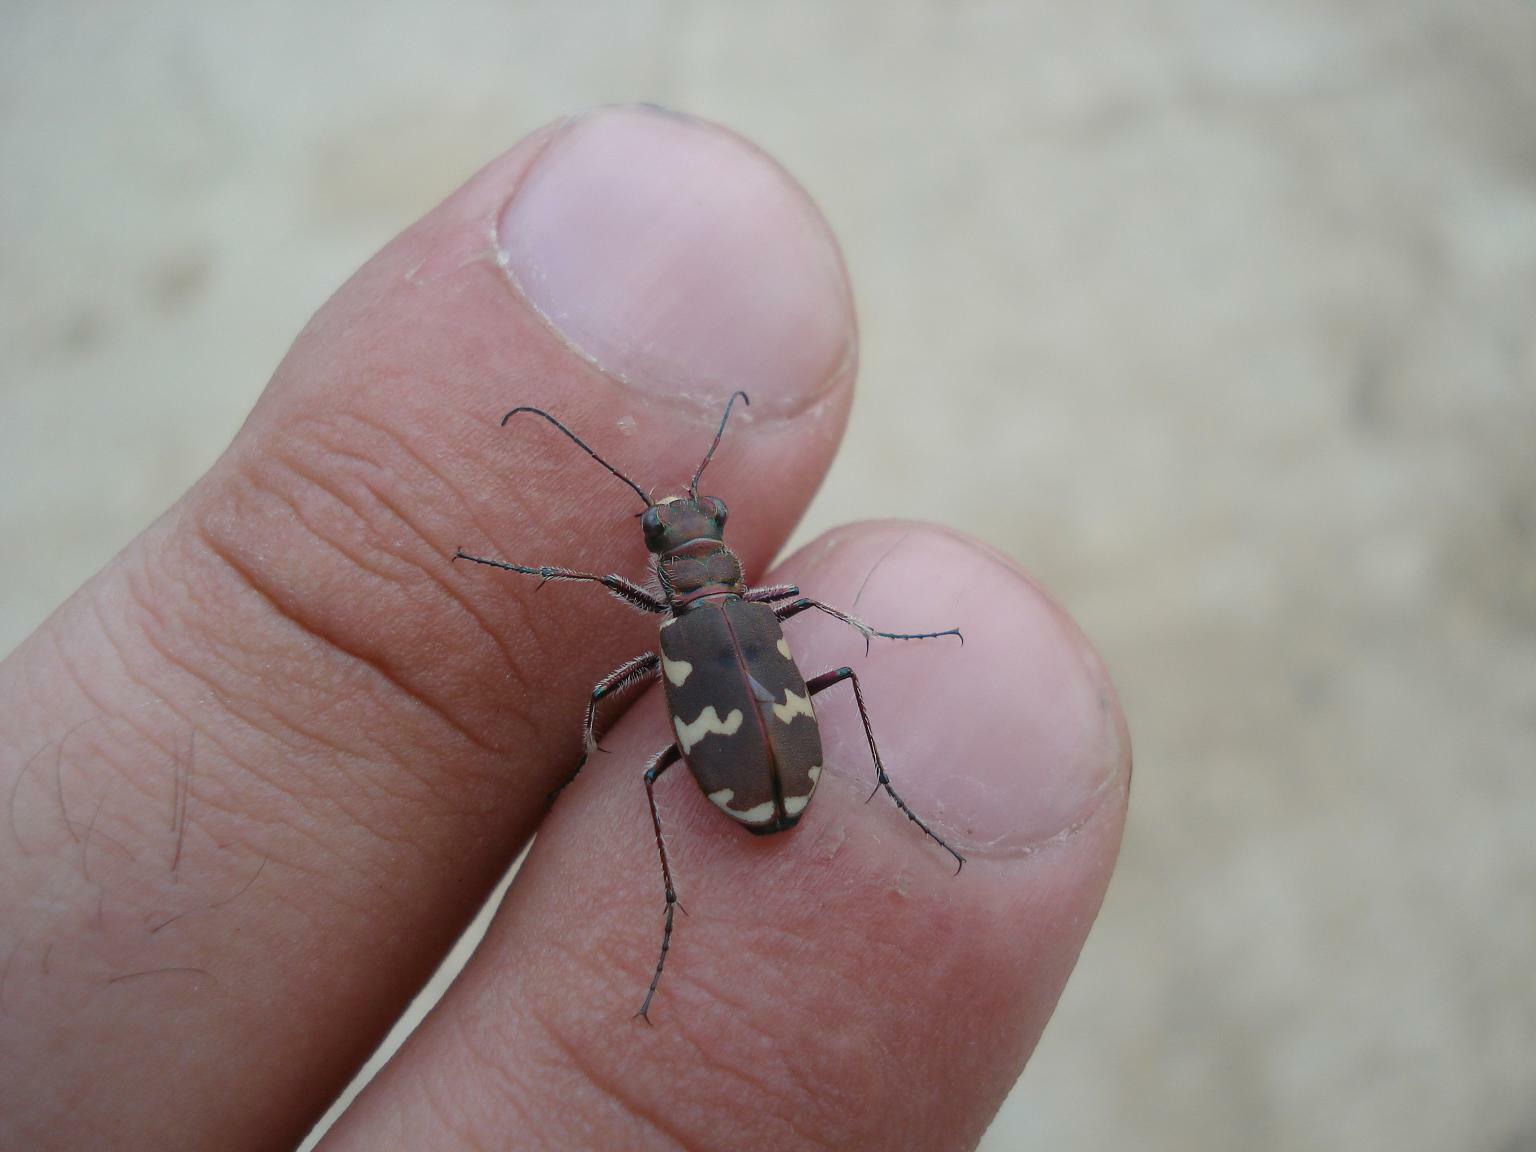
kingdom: Animalia
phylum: Arthropoda
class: Insecta
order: Coleoptera
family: Carabidae
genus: Cicindela
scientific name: Cicindela hybrida
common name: Northern dune tiger beetle
